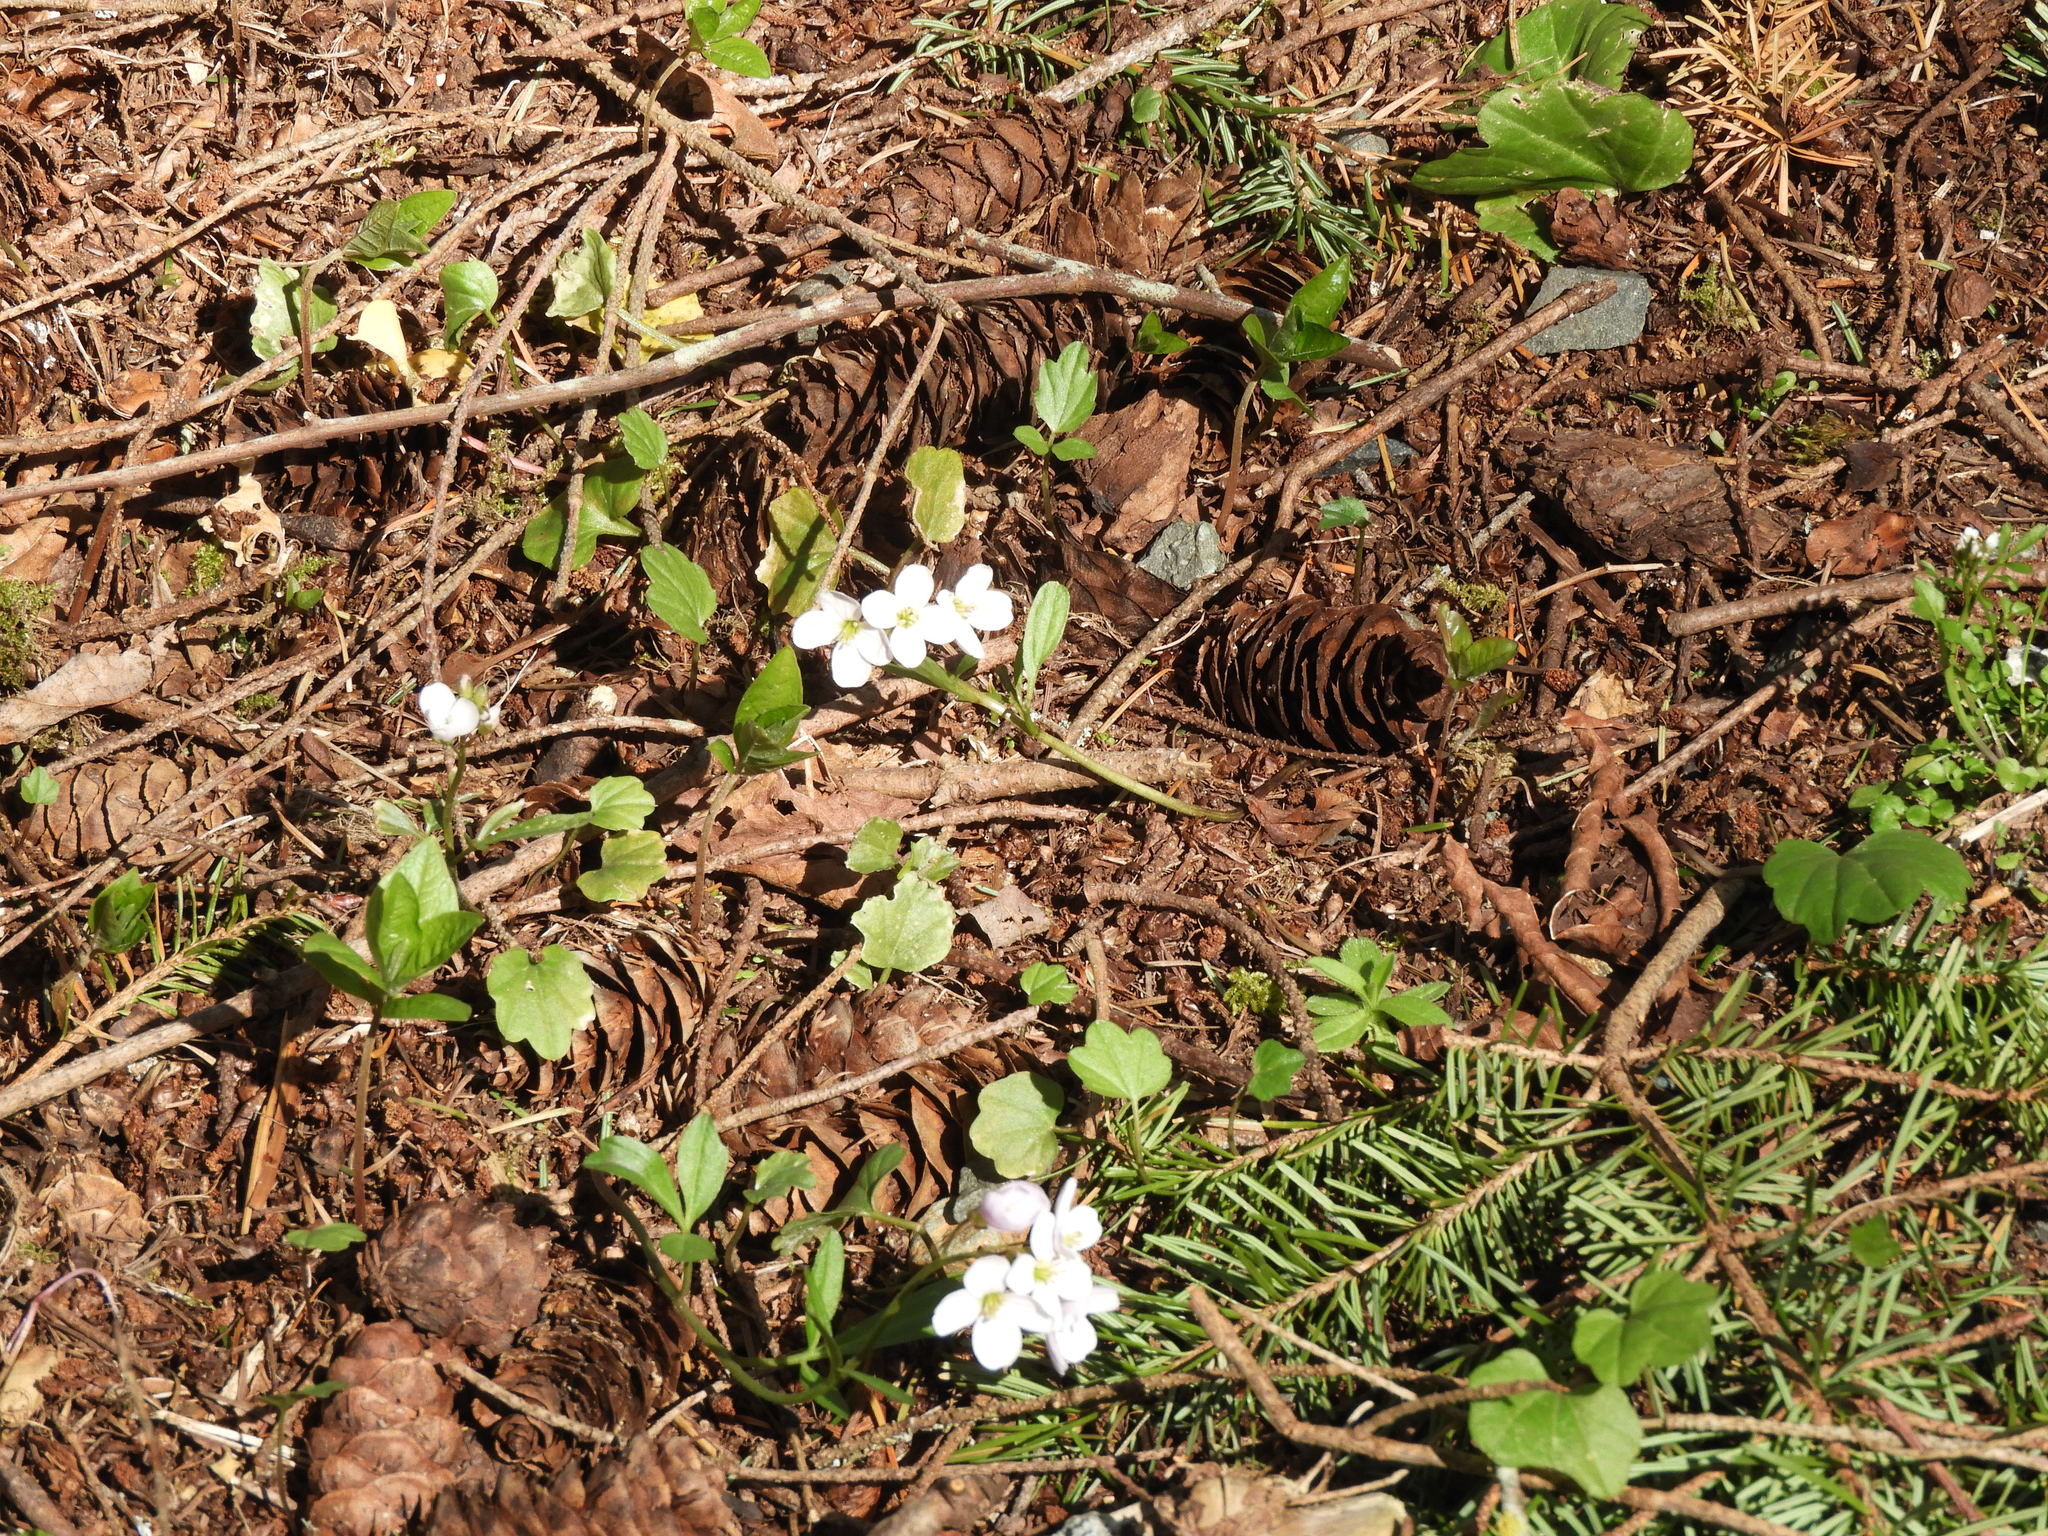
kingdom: Plantae
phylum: Tracheophyta
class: Magnoliopsida
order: Brassicales
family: Brassicaceae
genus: Cardamine
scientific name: Cardamine nuttallii
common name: Nuttall's toothwort
